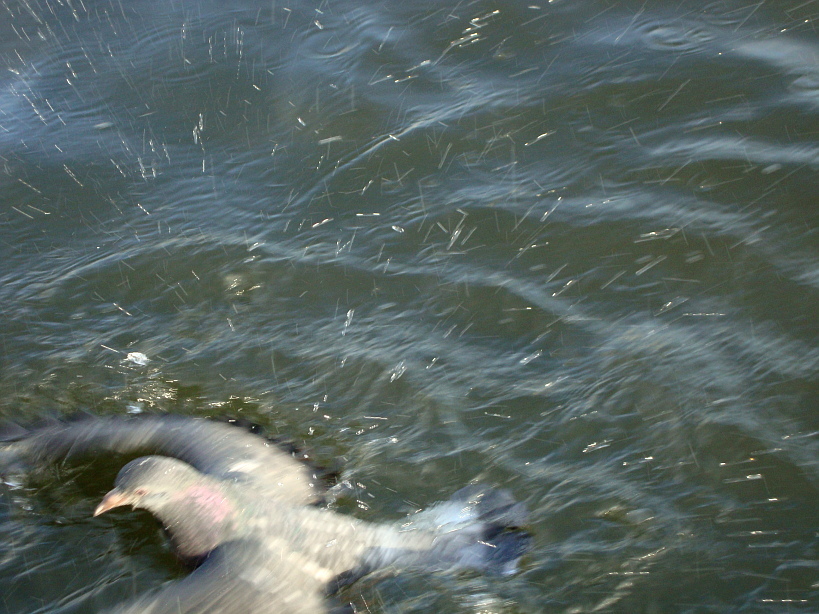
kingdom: Animalia
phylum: Chordata
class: Aves
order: Columbiformes
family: Columbidae
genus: Columba
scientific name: Columba livia
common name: Rock pigeon
